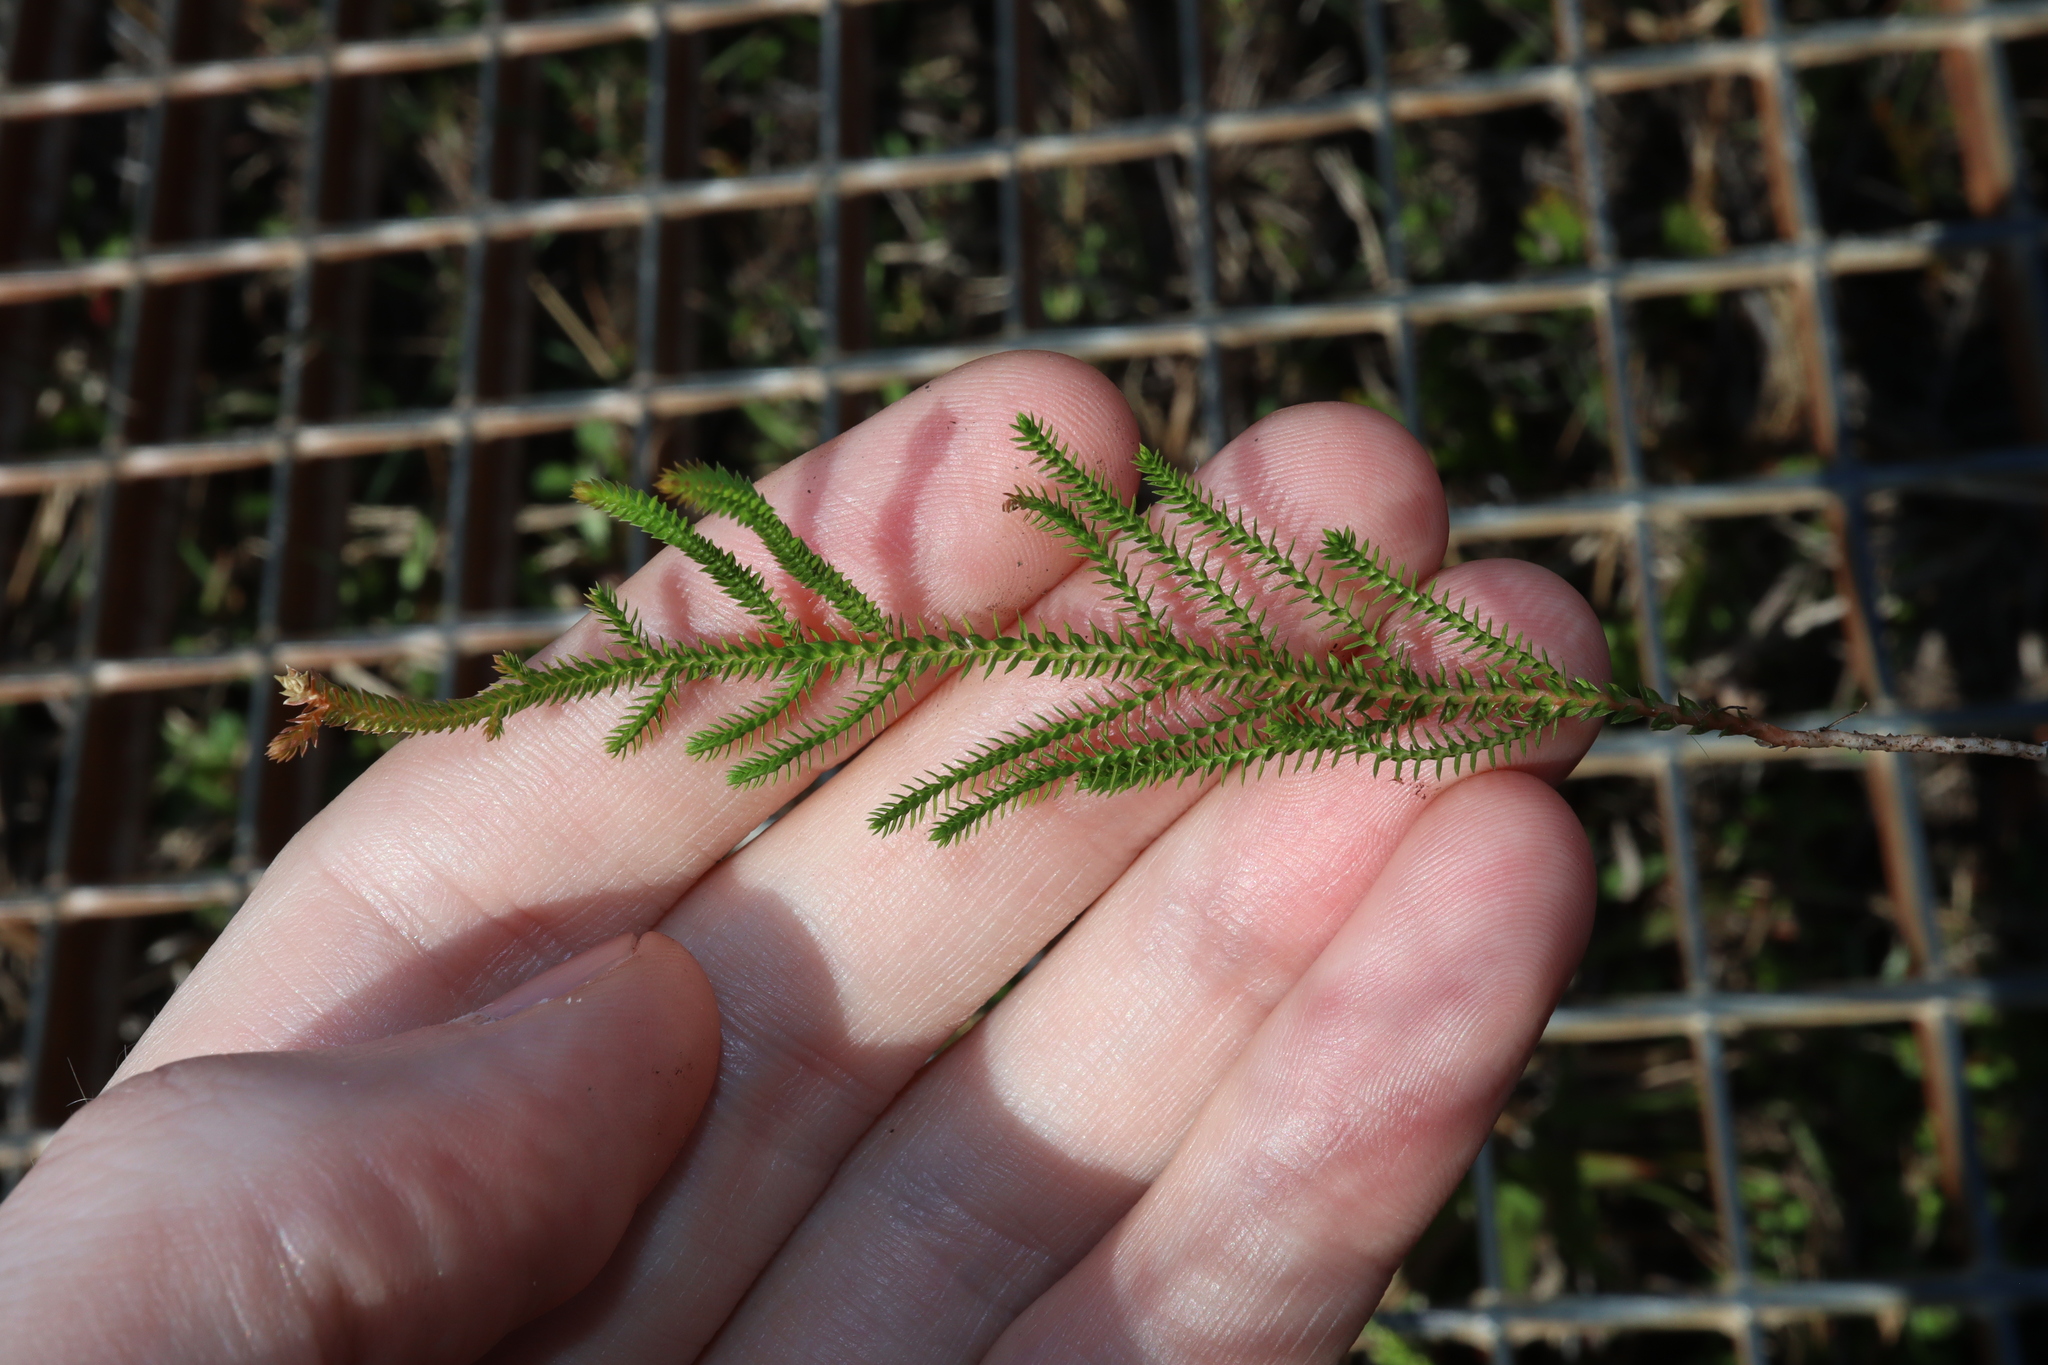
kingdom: Plantae
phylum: Tracheophyta
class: Lycopodiopsida
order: Selaginellales
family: Selaginellaceae
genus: Selaginella
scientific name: Selaginella uliginosa
